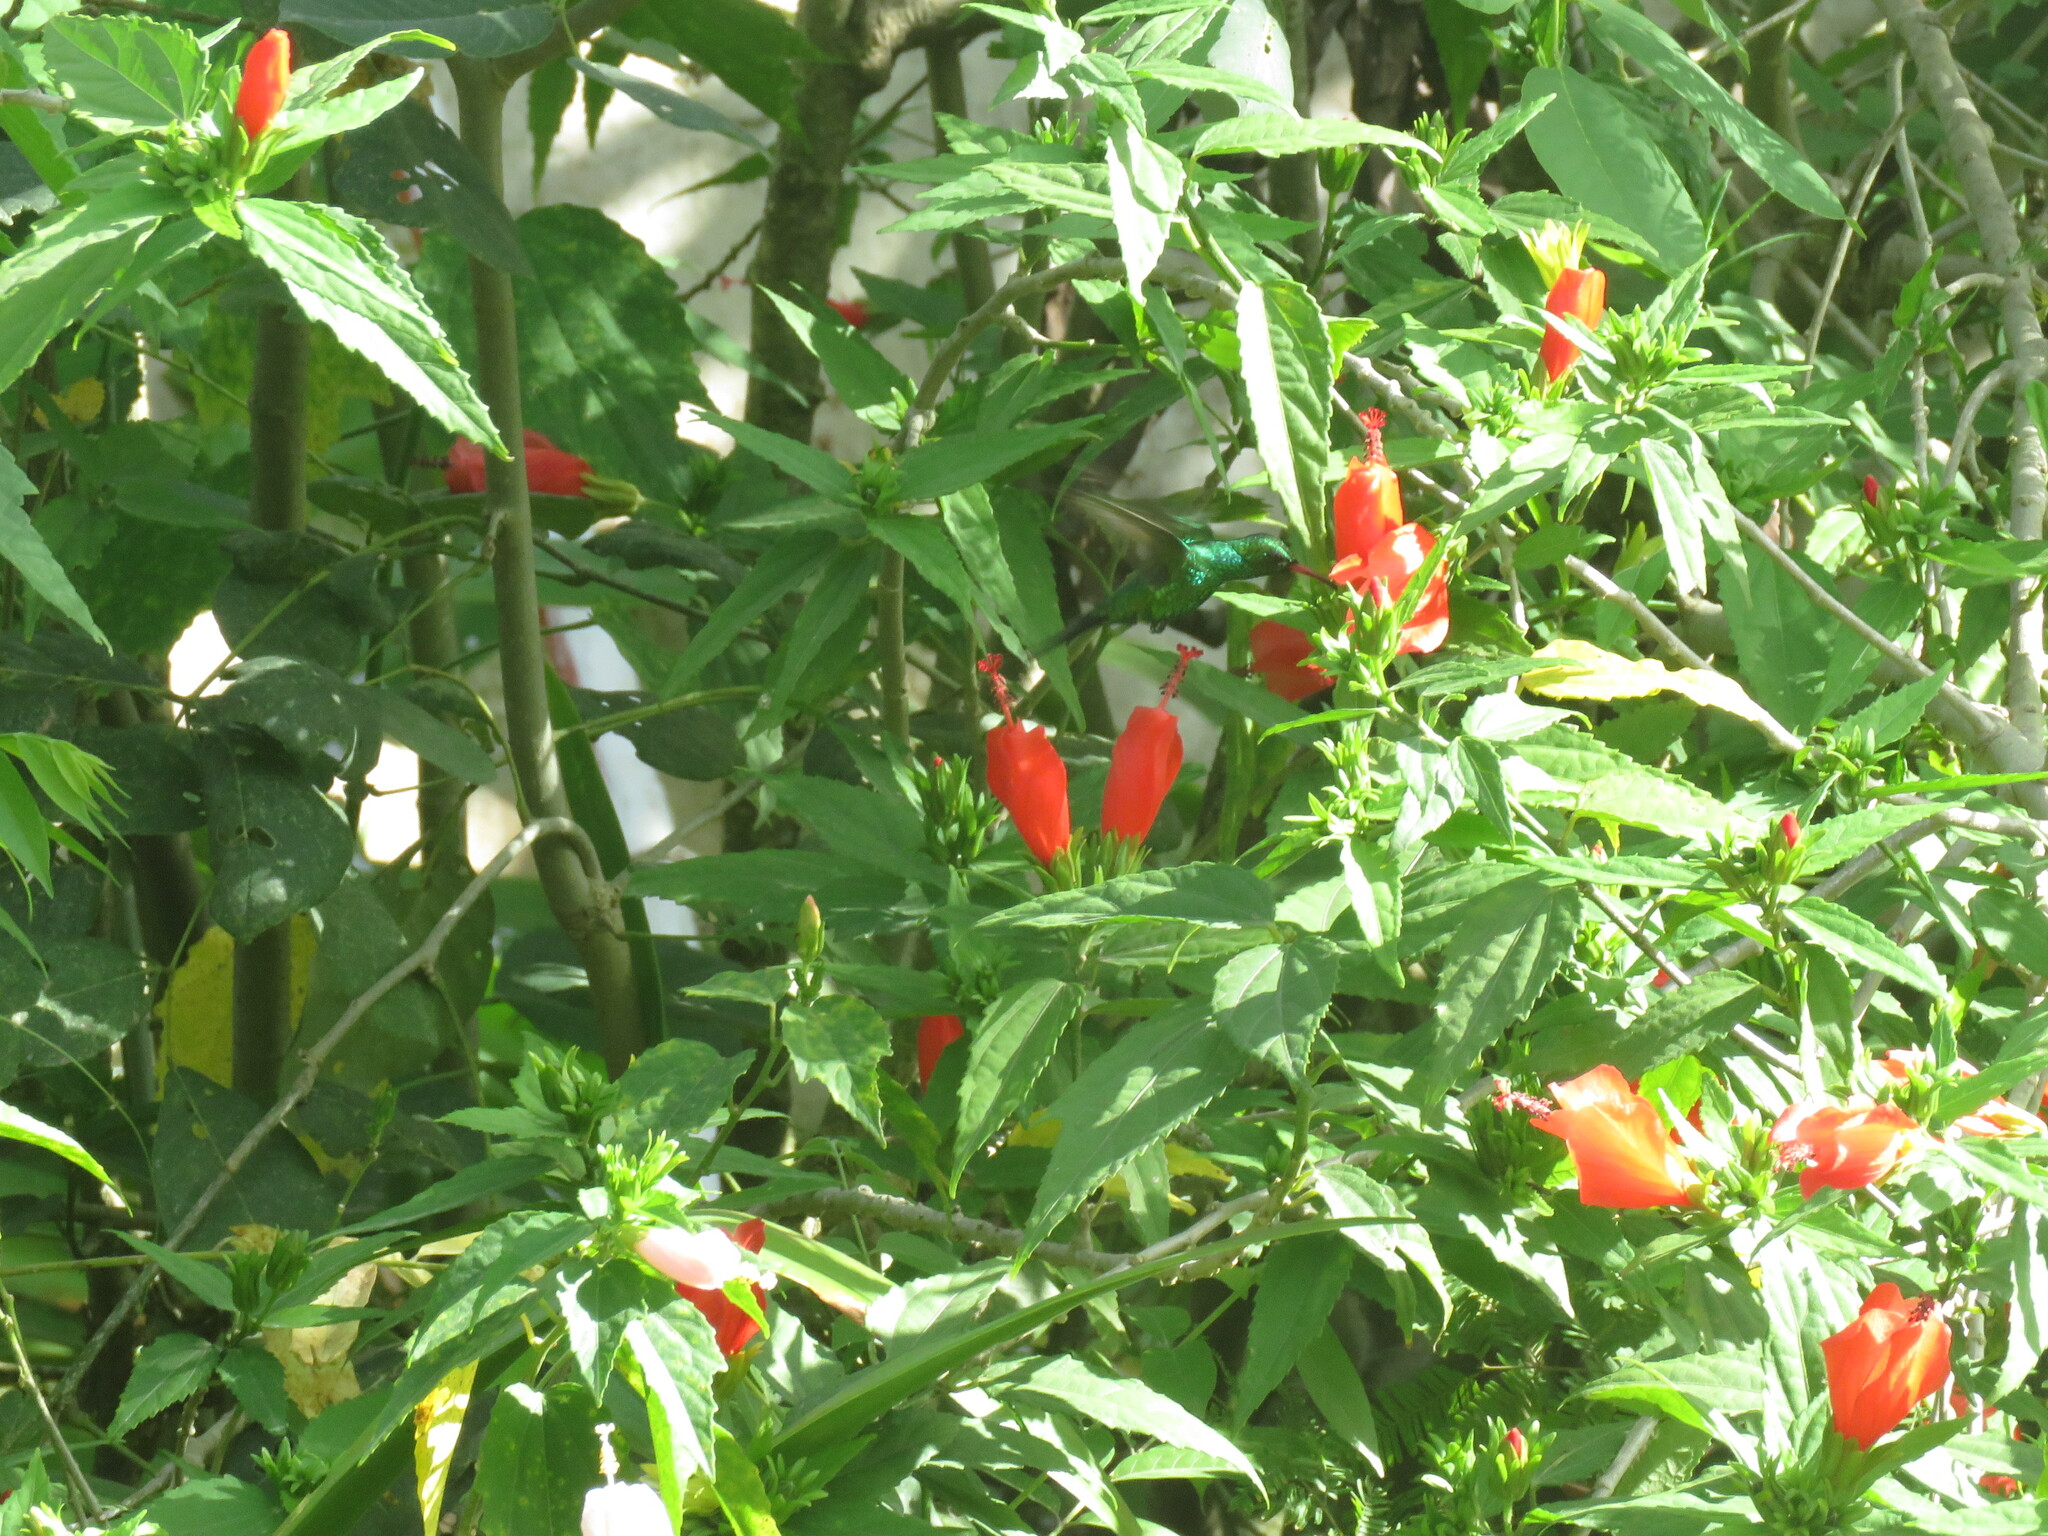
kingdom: Animalia
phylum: Chordata
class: Aves
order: Apodiformes
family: Trochilidae
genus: Cynanthus
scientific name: Cynanthus forficatus
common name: Cozumel emerald
